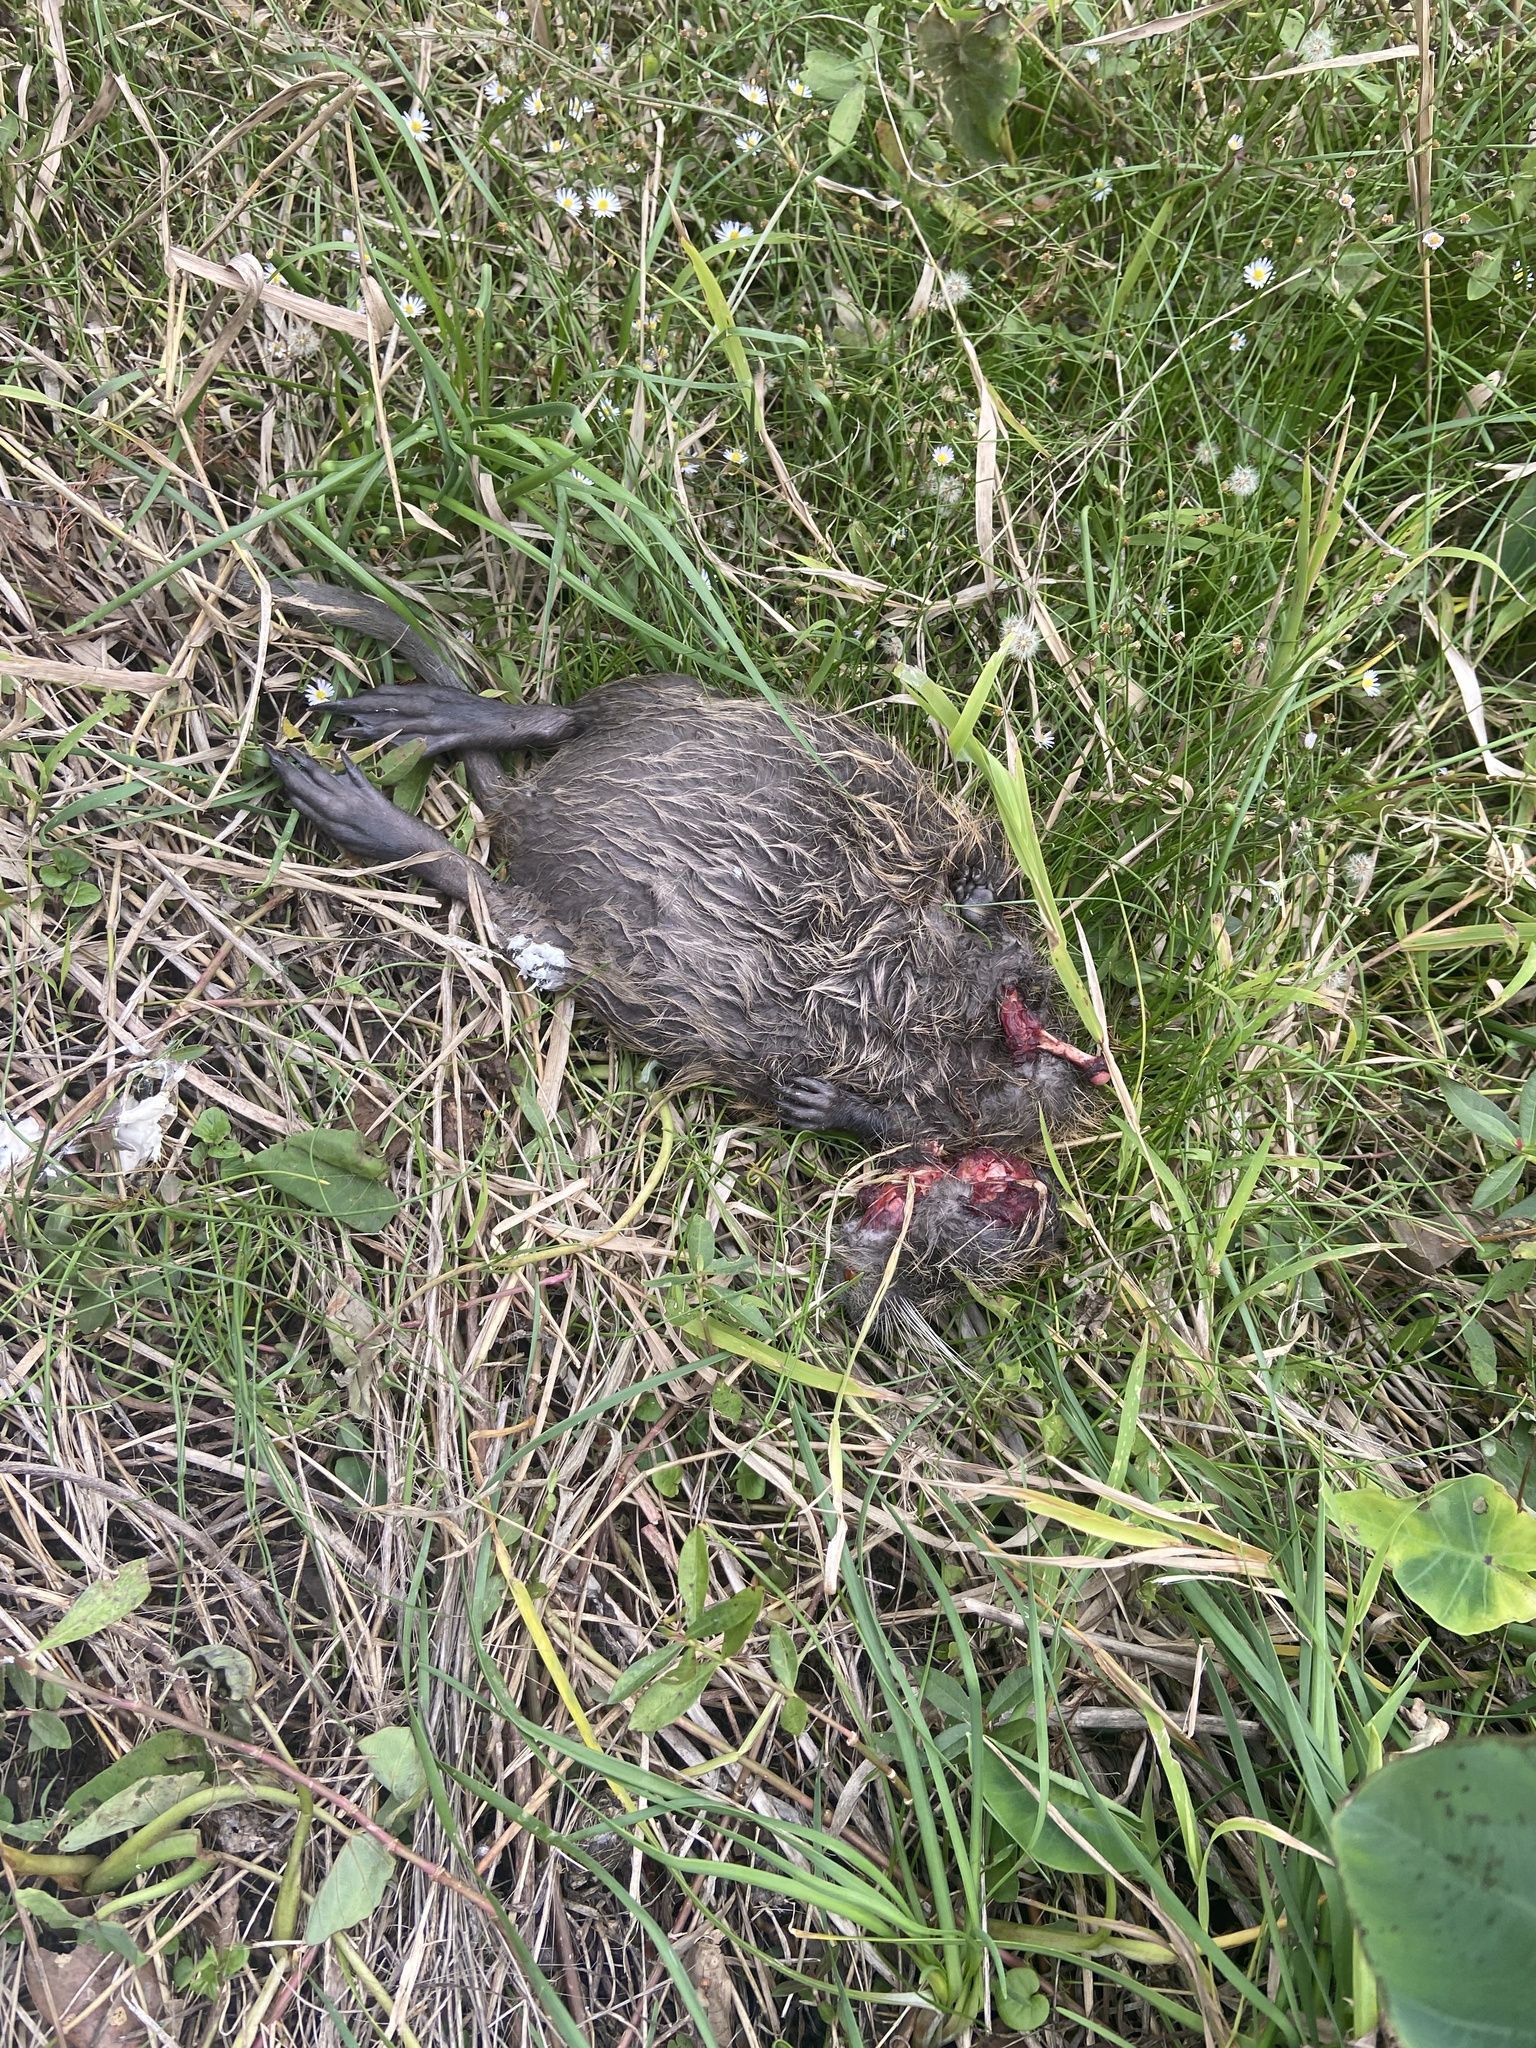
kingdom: Animalia
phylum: Chordata
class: Mammalia
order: Rodentia
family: Myocastoridae
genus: Myocastor
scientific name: Myocastor coypus
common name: Coypu
